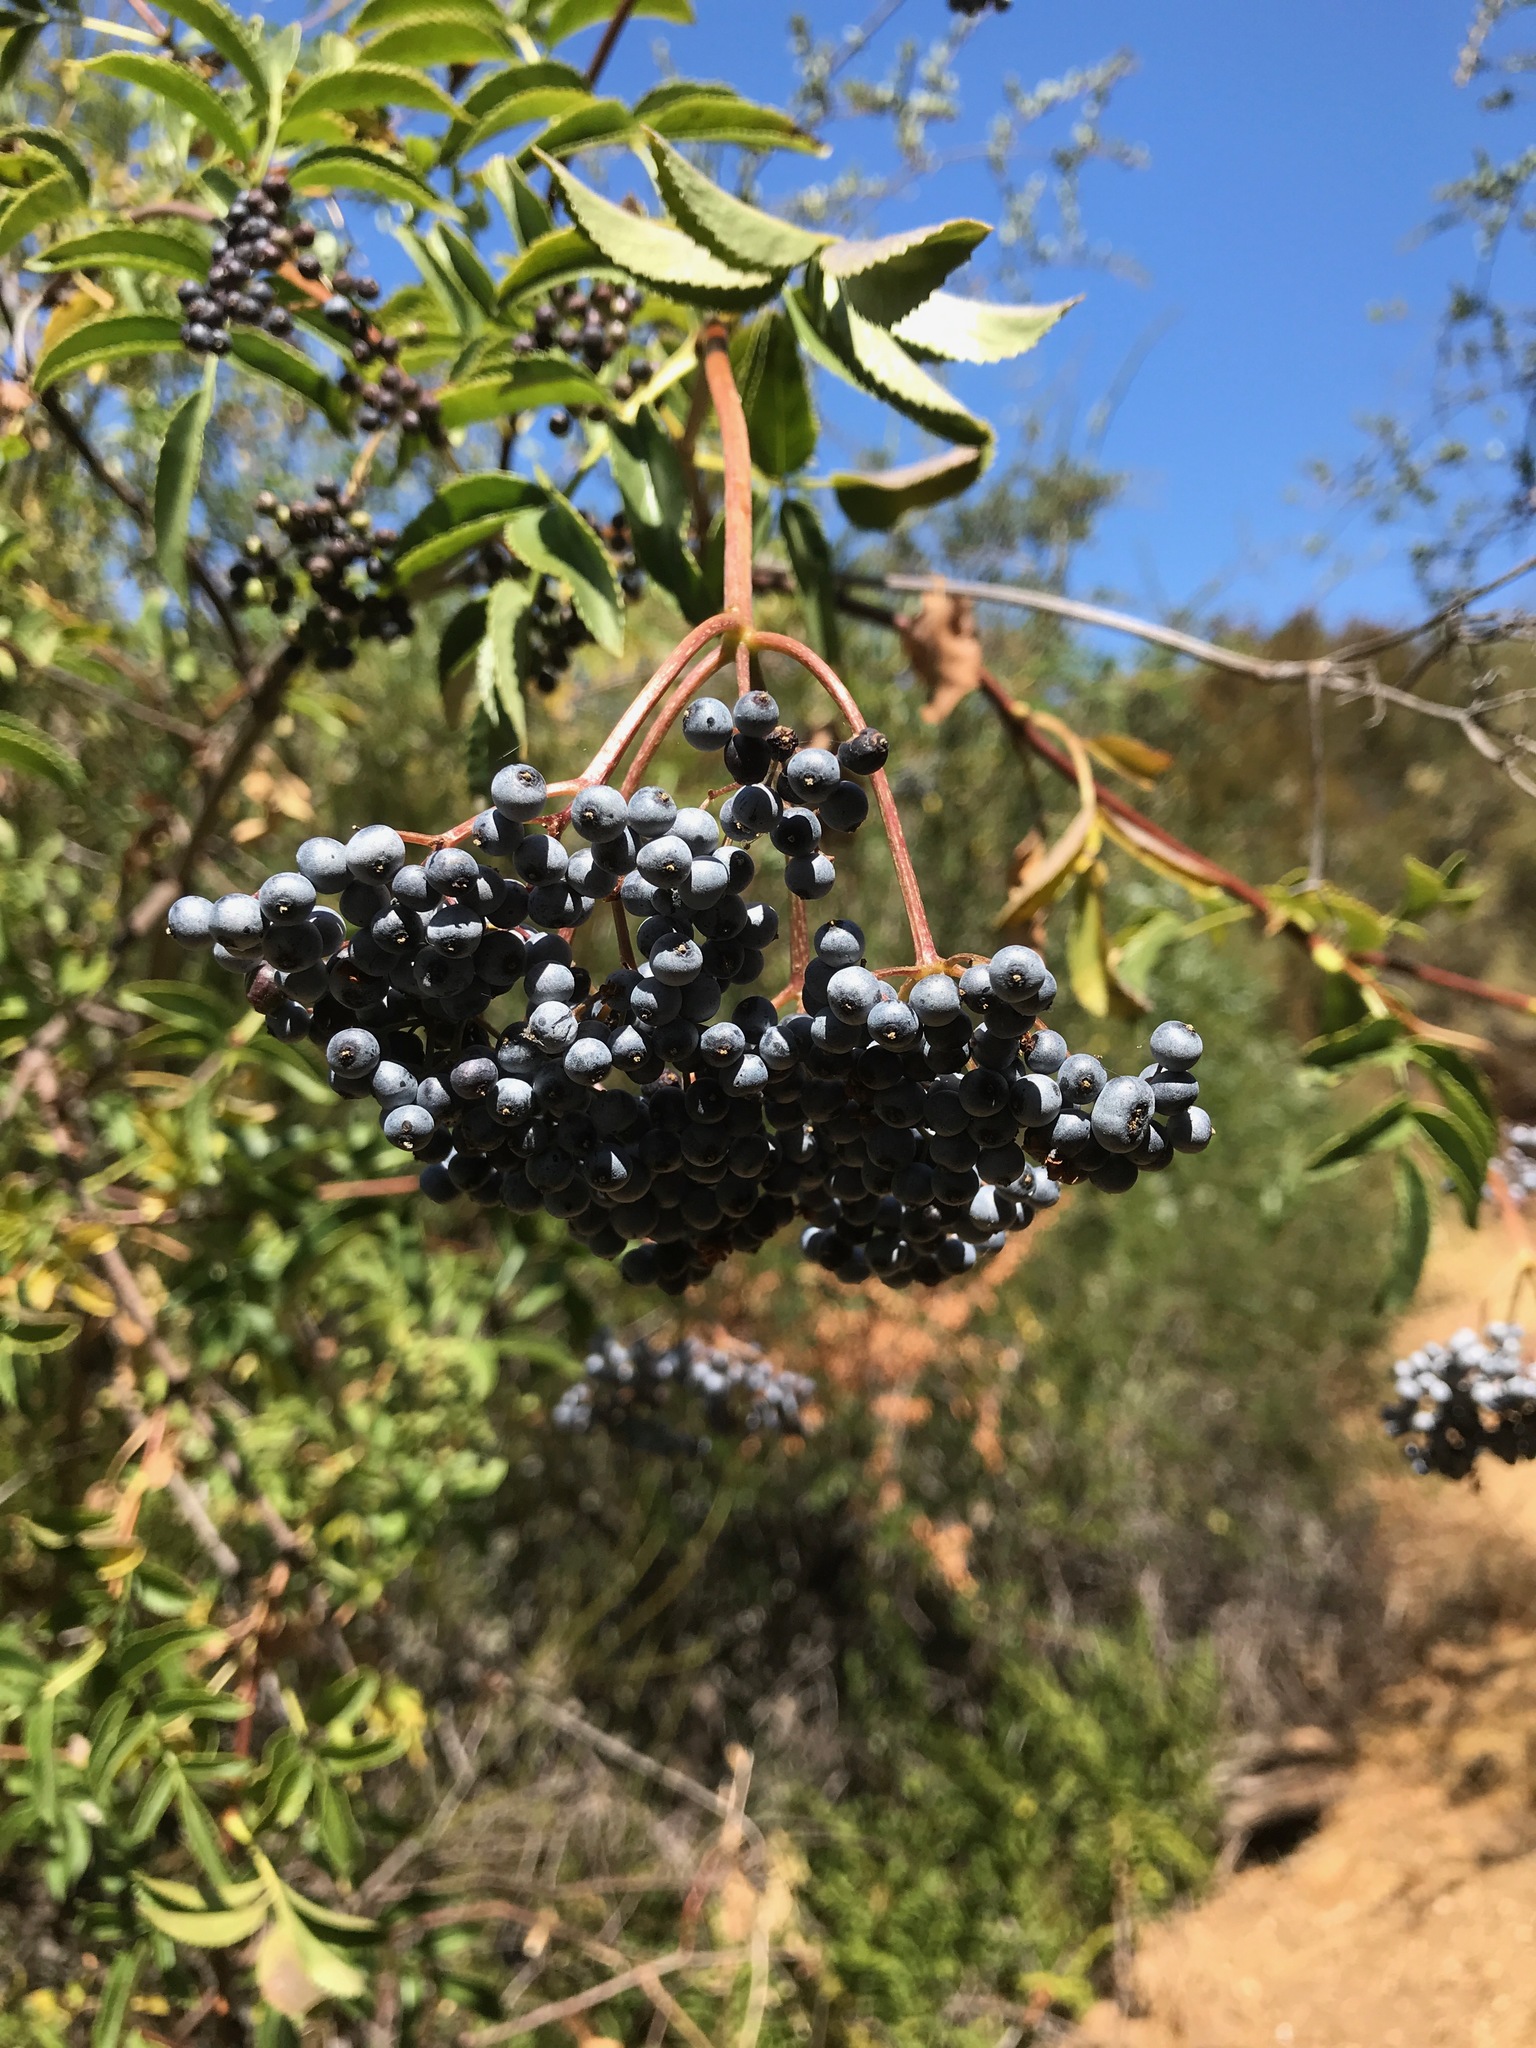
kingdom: Plantae
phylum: Tracheophyta
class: Magnoliopsida
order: Dipsacales
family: Viburnaceae
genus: Sambucus
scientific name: Sambucus cerulea
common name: Blue elder
